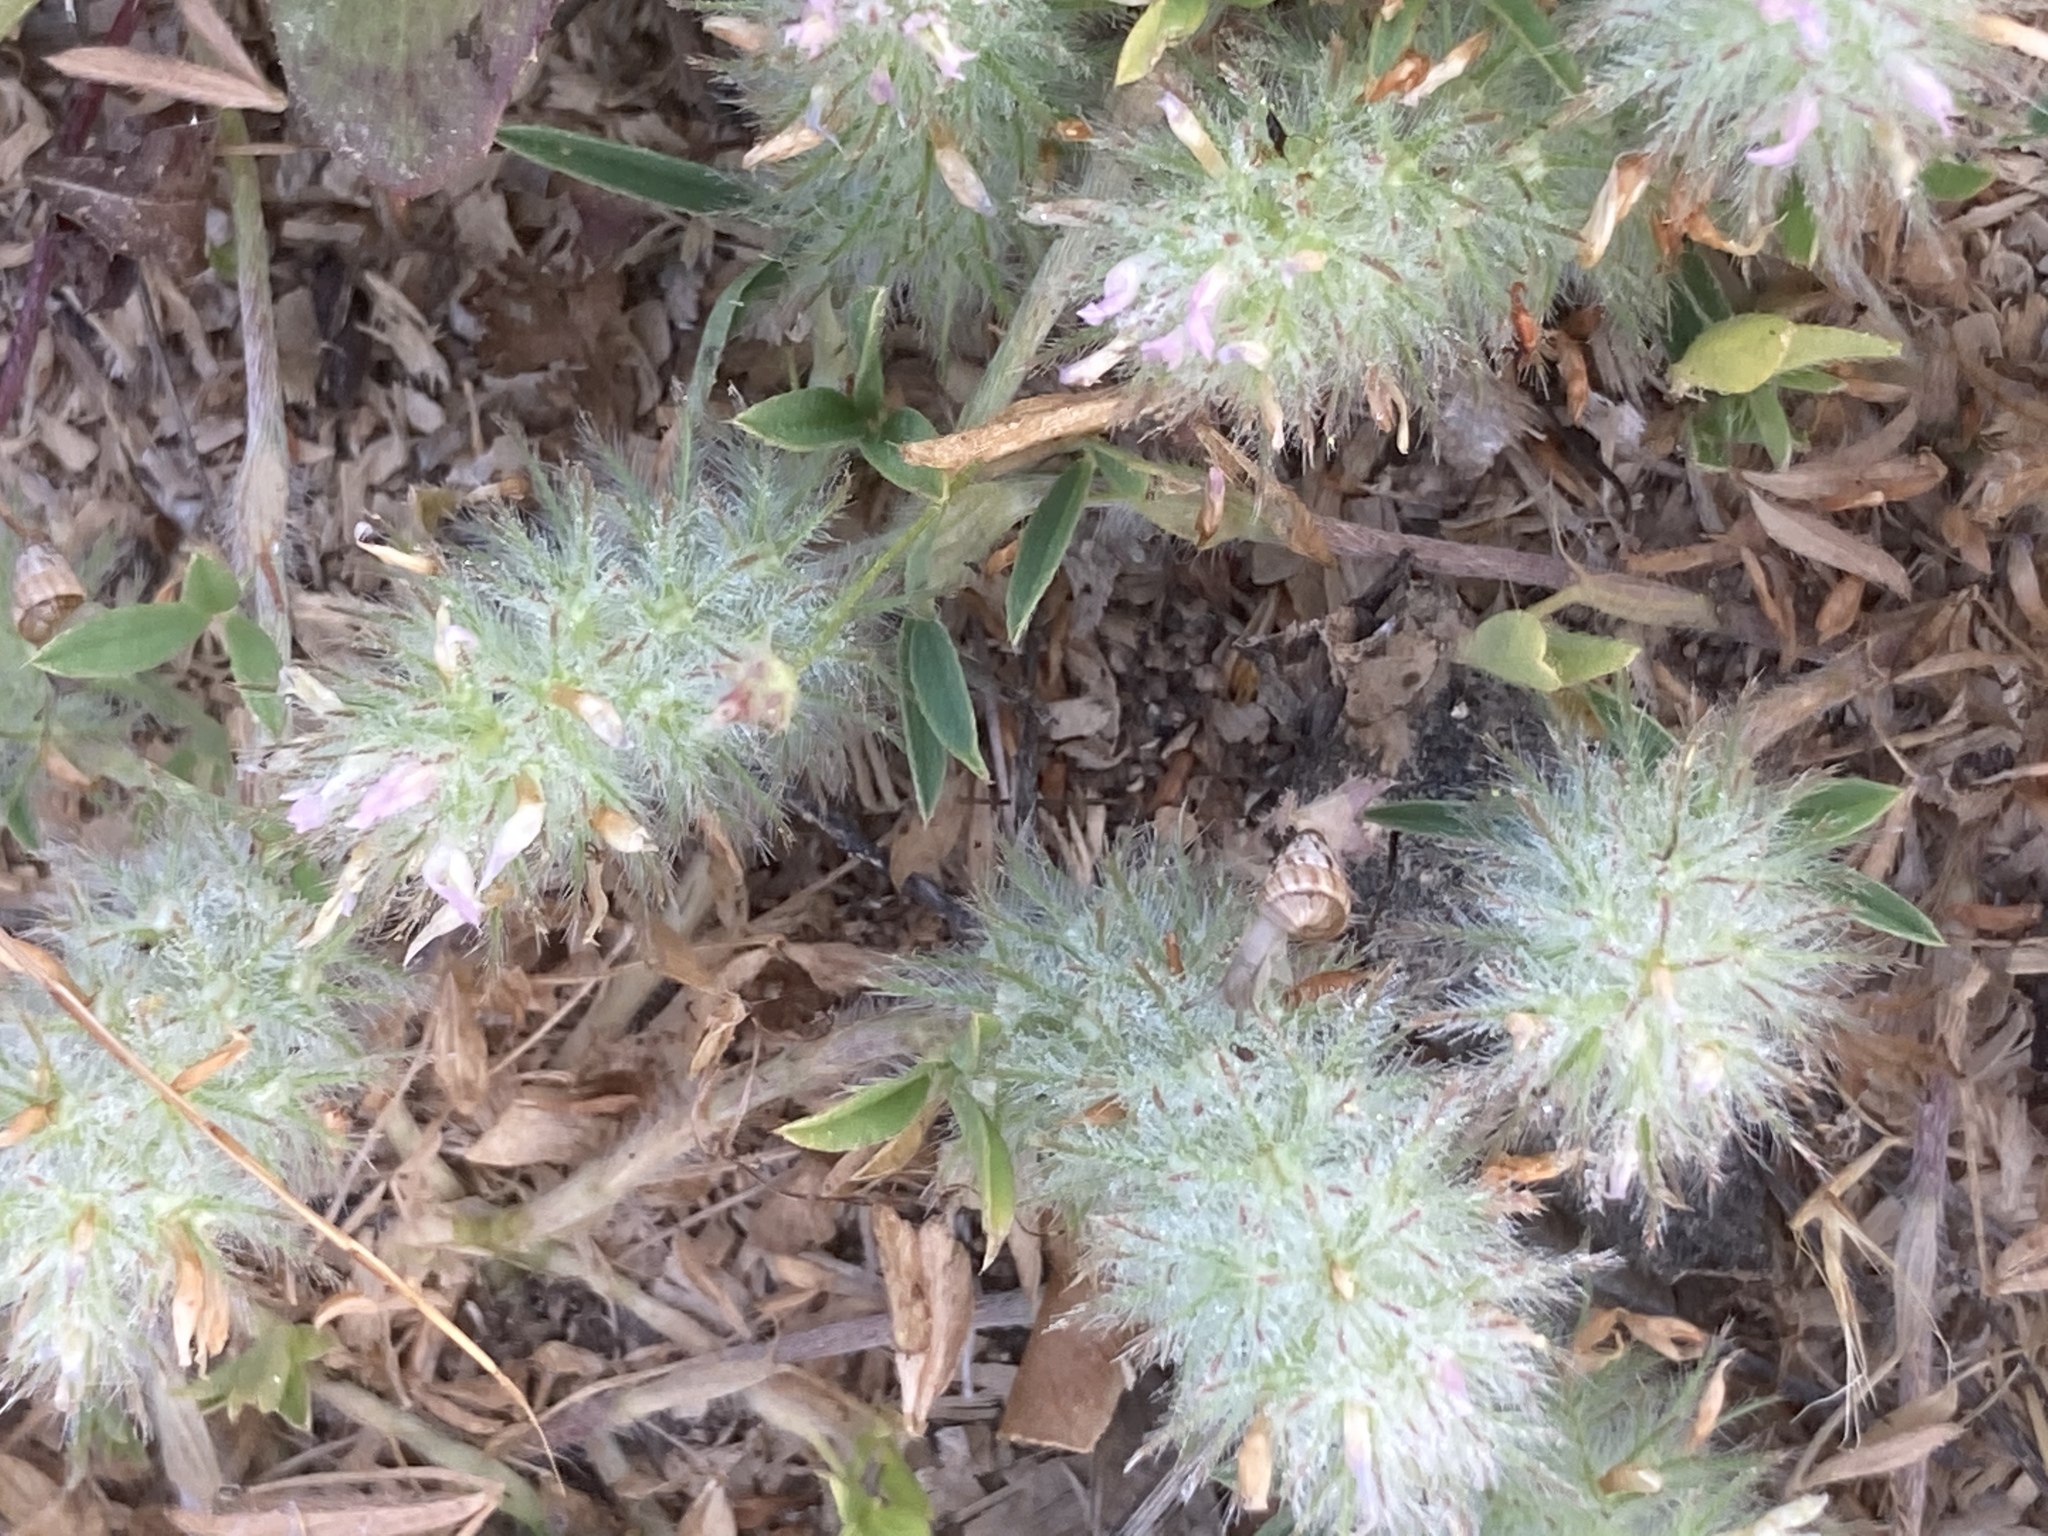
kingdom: Plantae
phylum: Tracheophyta
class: Magnoliopsida
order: Fabales
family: Fabaceae
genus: Trifolium
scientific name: Trifolium infamia-ponertii
